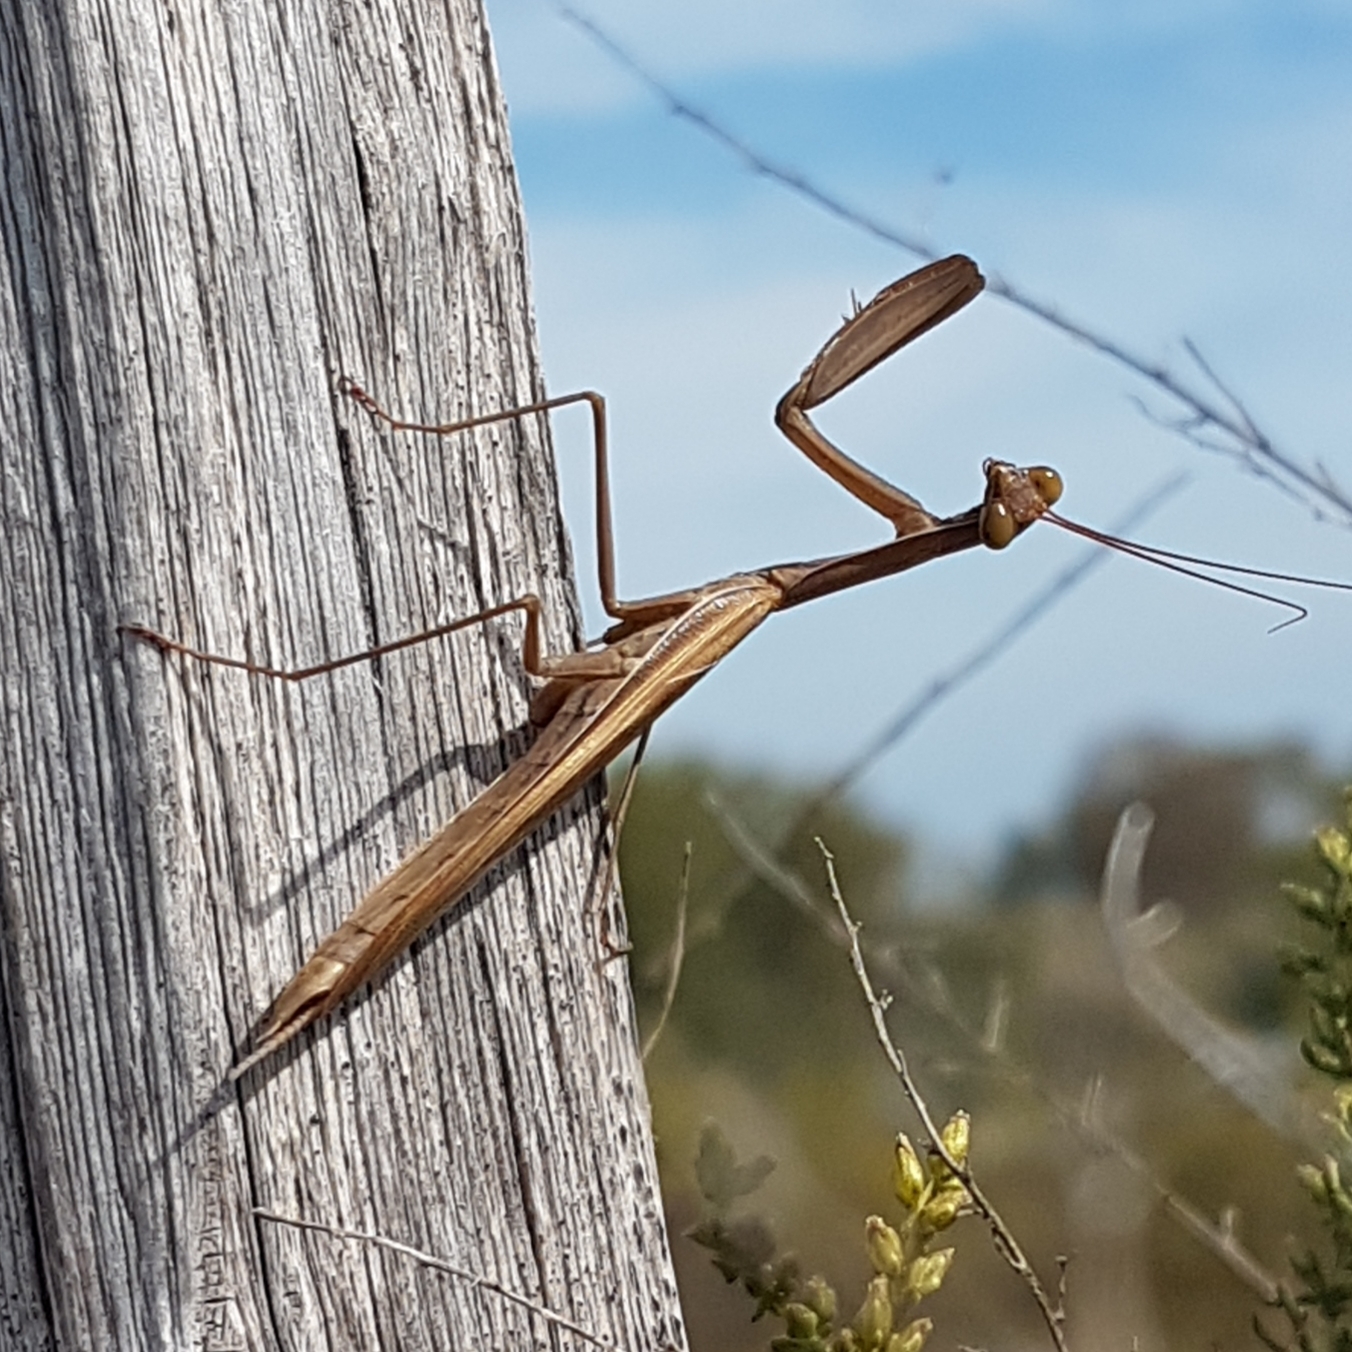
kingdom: Animalia
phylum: Arthropoda
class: Insecta
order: Mantodea
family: Mantidae
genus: Mantis
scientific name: Mantis religiosa
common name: Praying mantis
